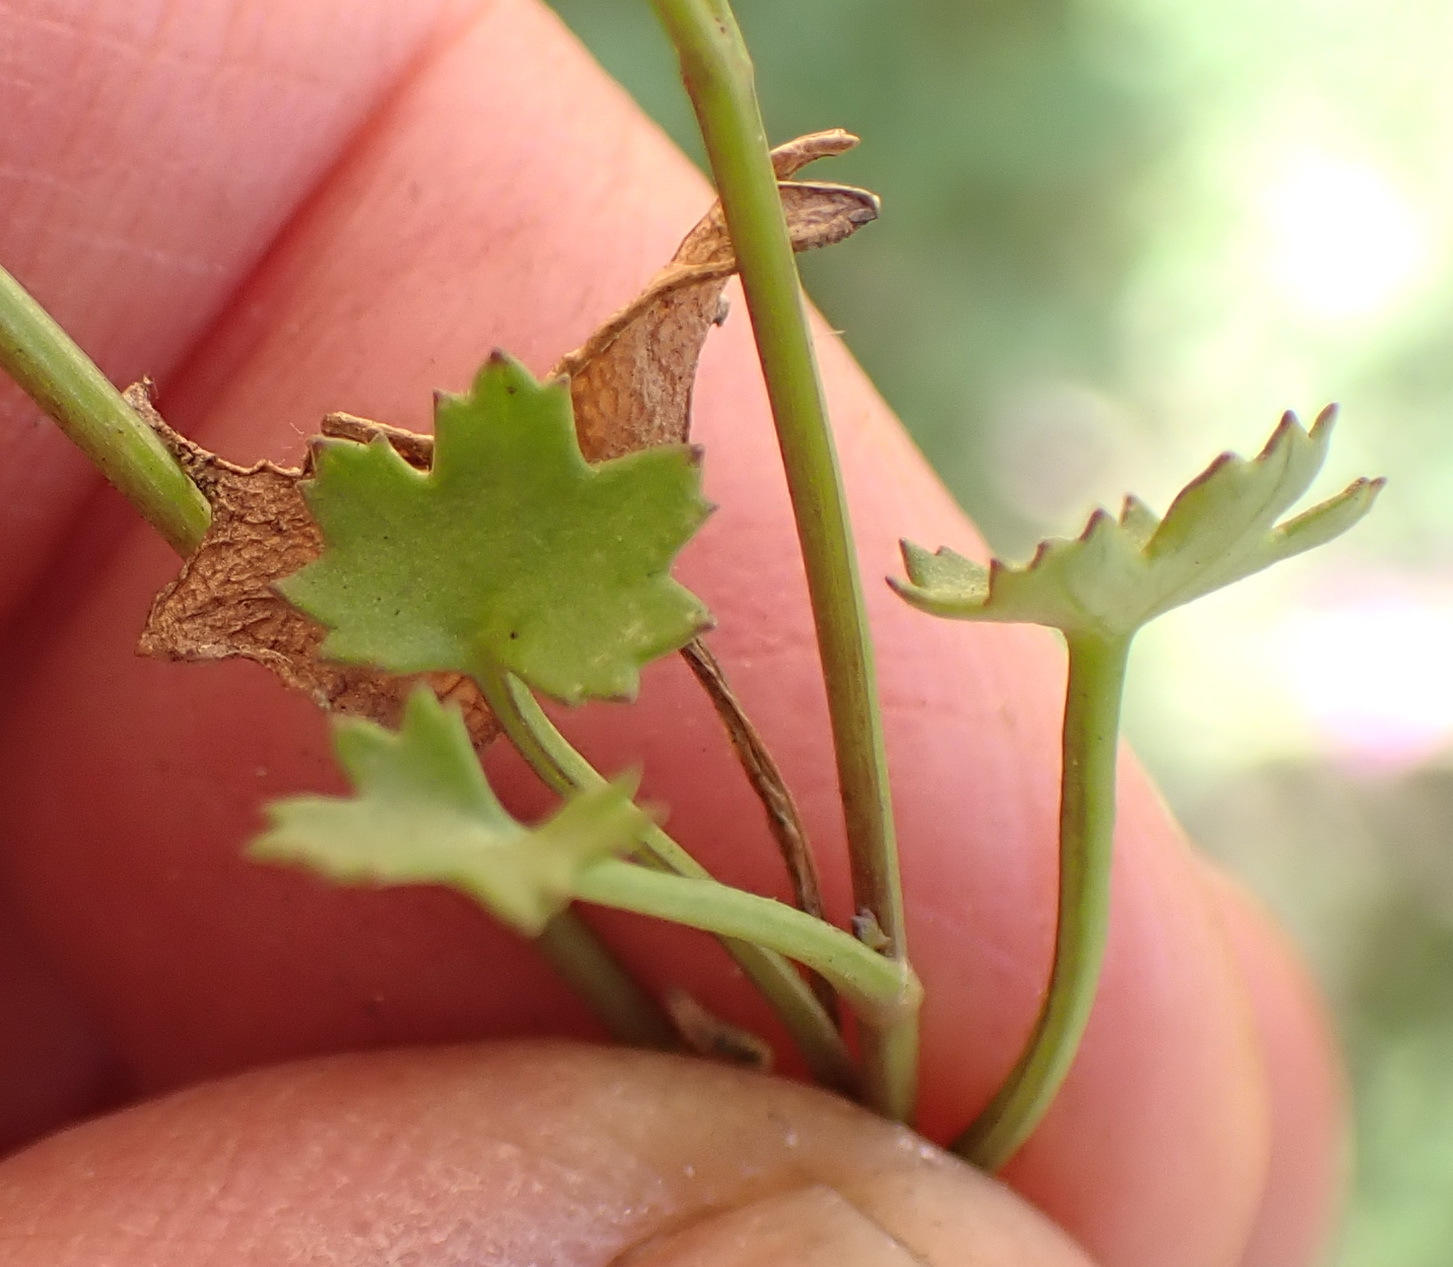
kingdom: Plantae
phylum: Tracheophyta
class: Magnoliopsida
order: Asterales
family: Asteraceae
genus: Cineraria
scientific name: Cineraria lobata
